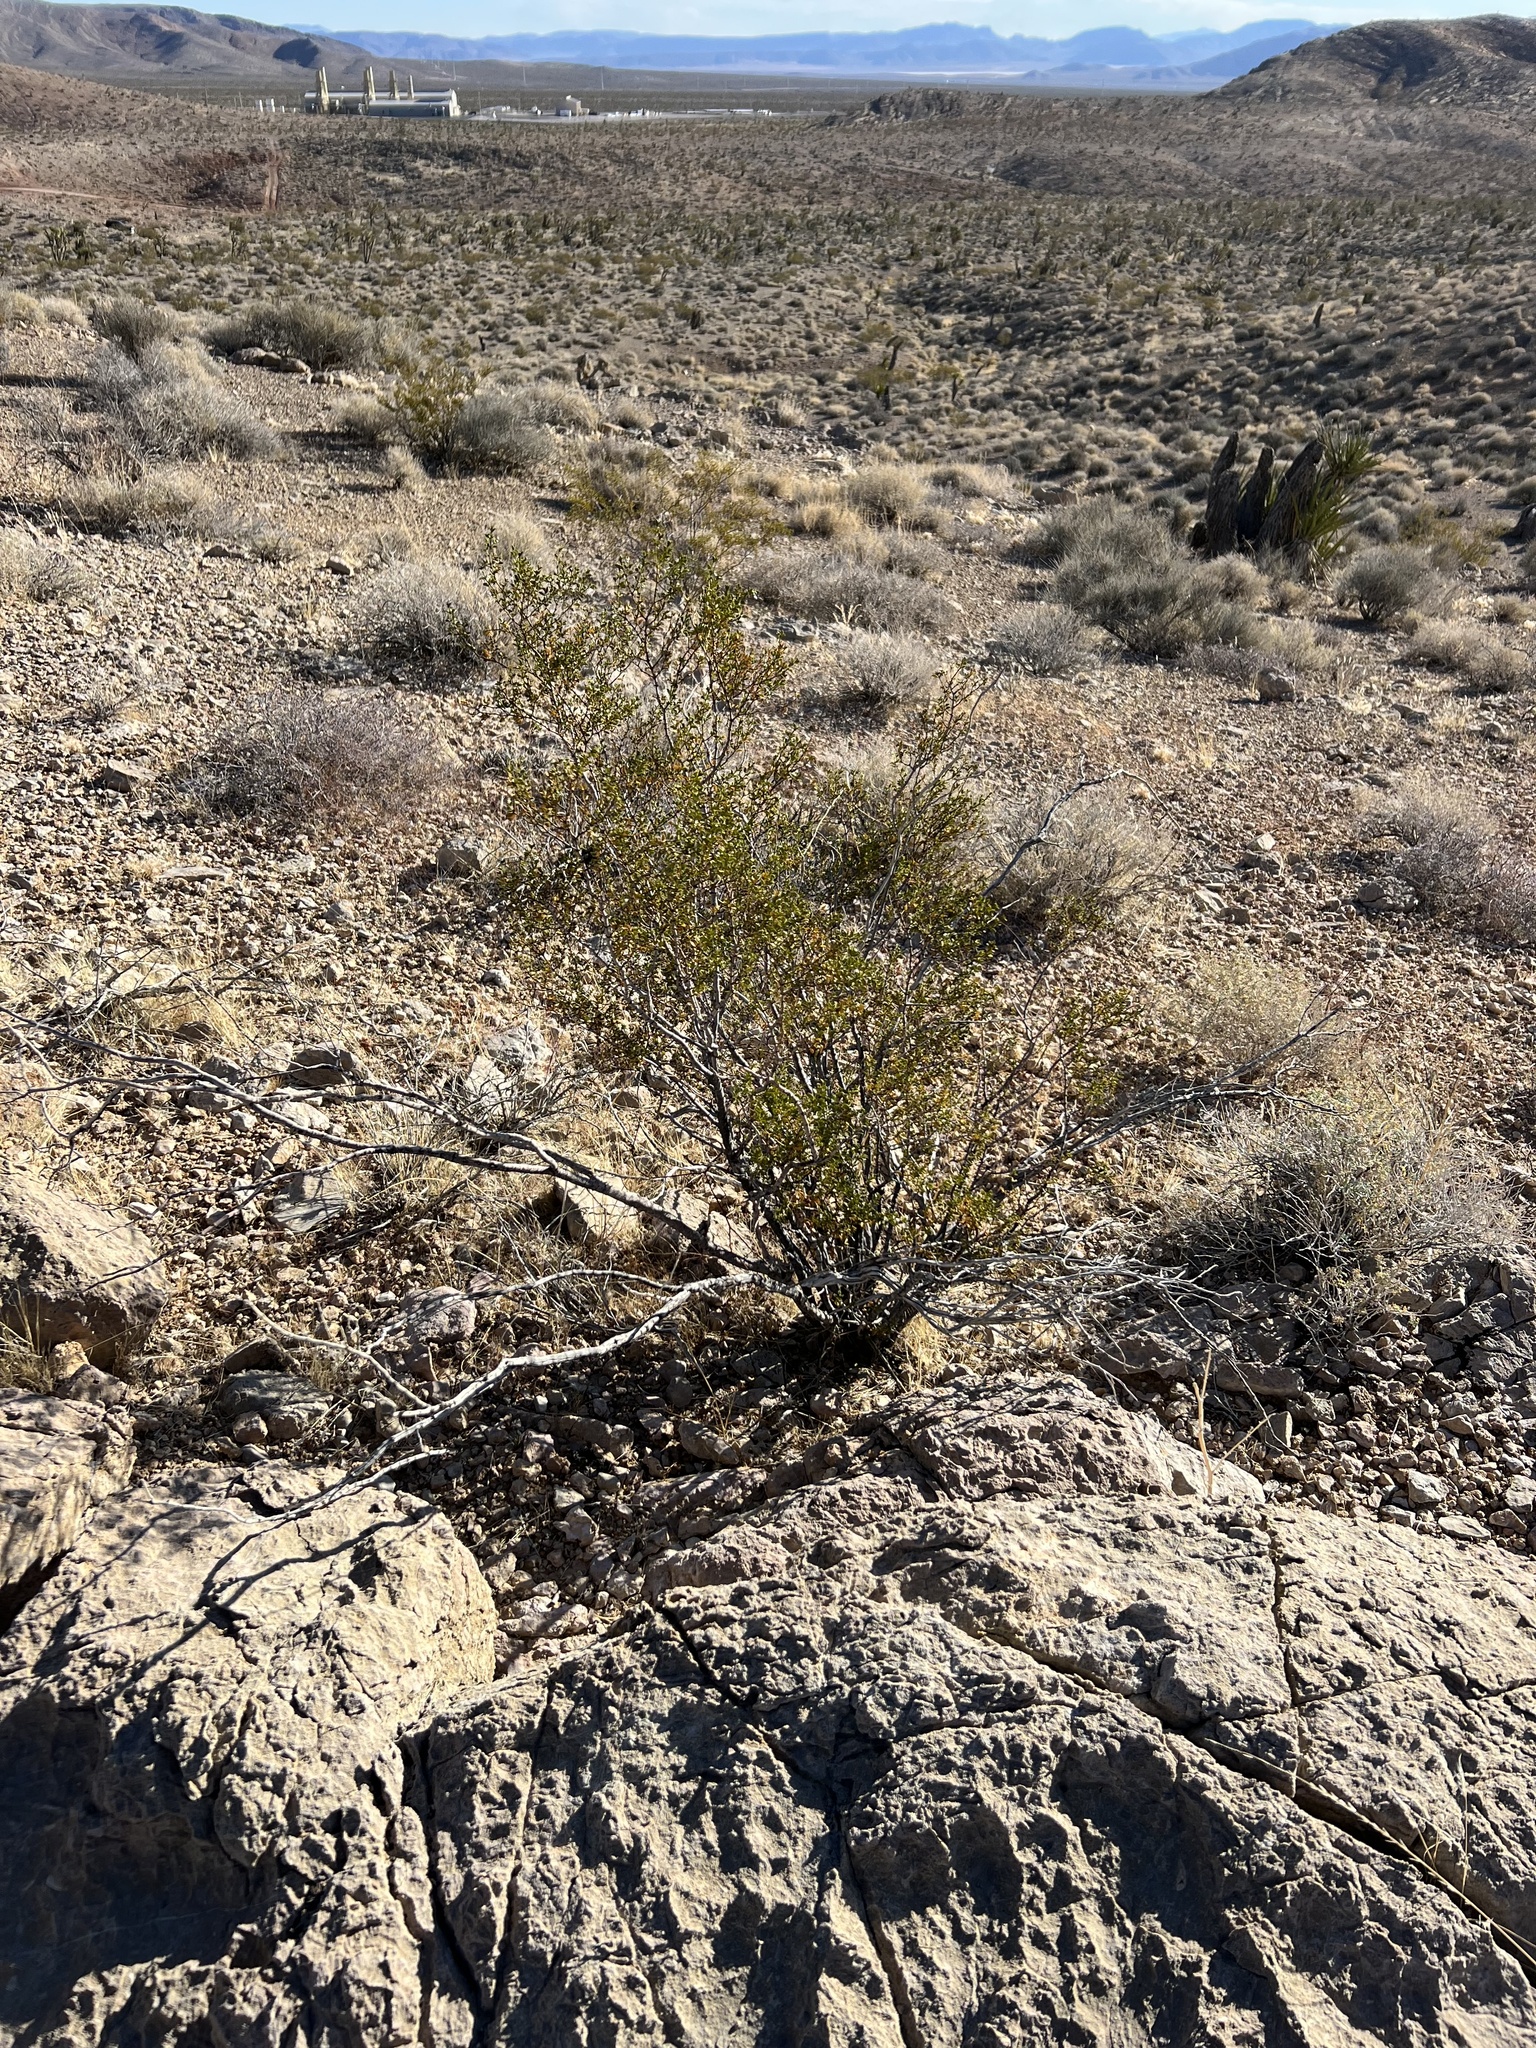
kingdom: Plantae
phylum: Tracheophyta
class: Magnoliopsida
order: Zygophyllales
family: Zygophyllaceae
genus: Larrea
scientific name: Larrea tridentata
